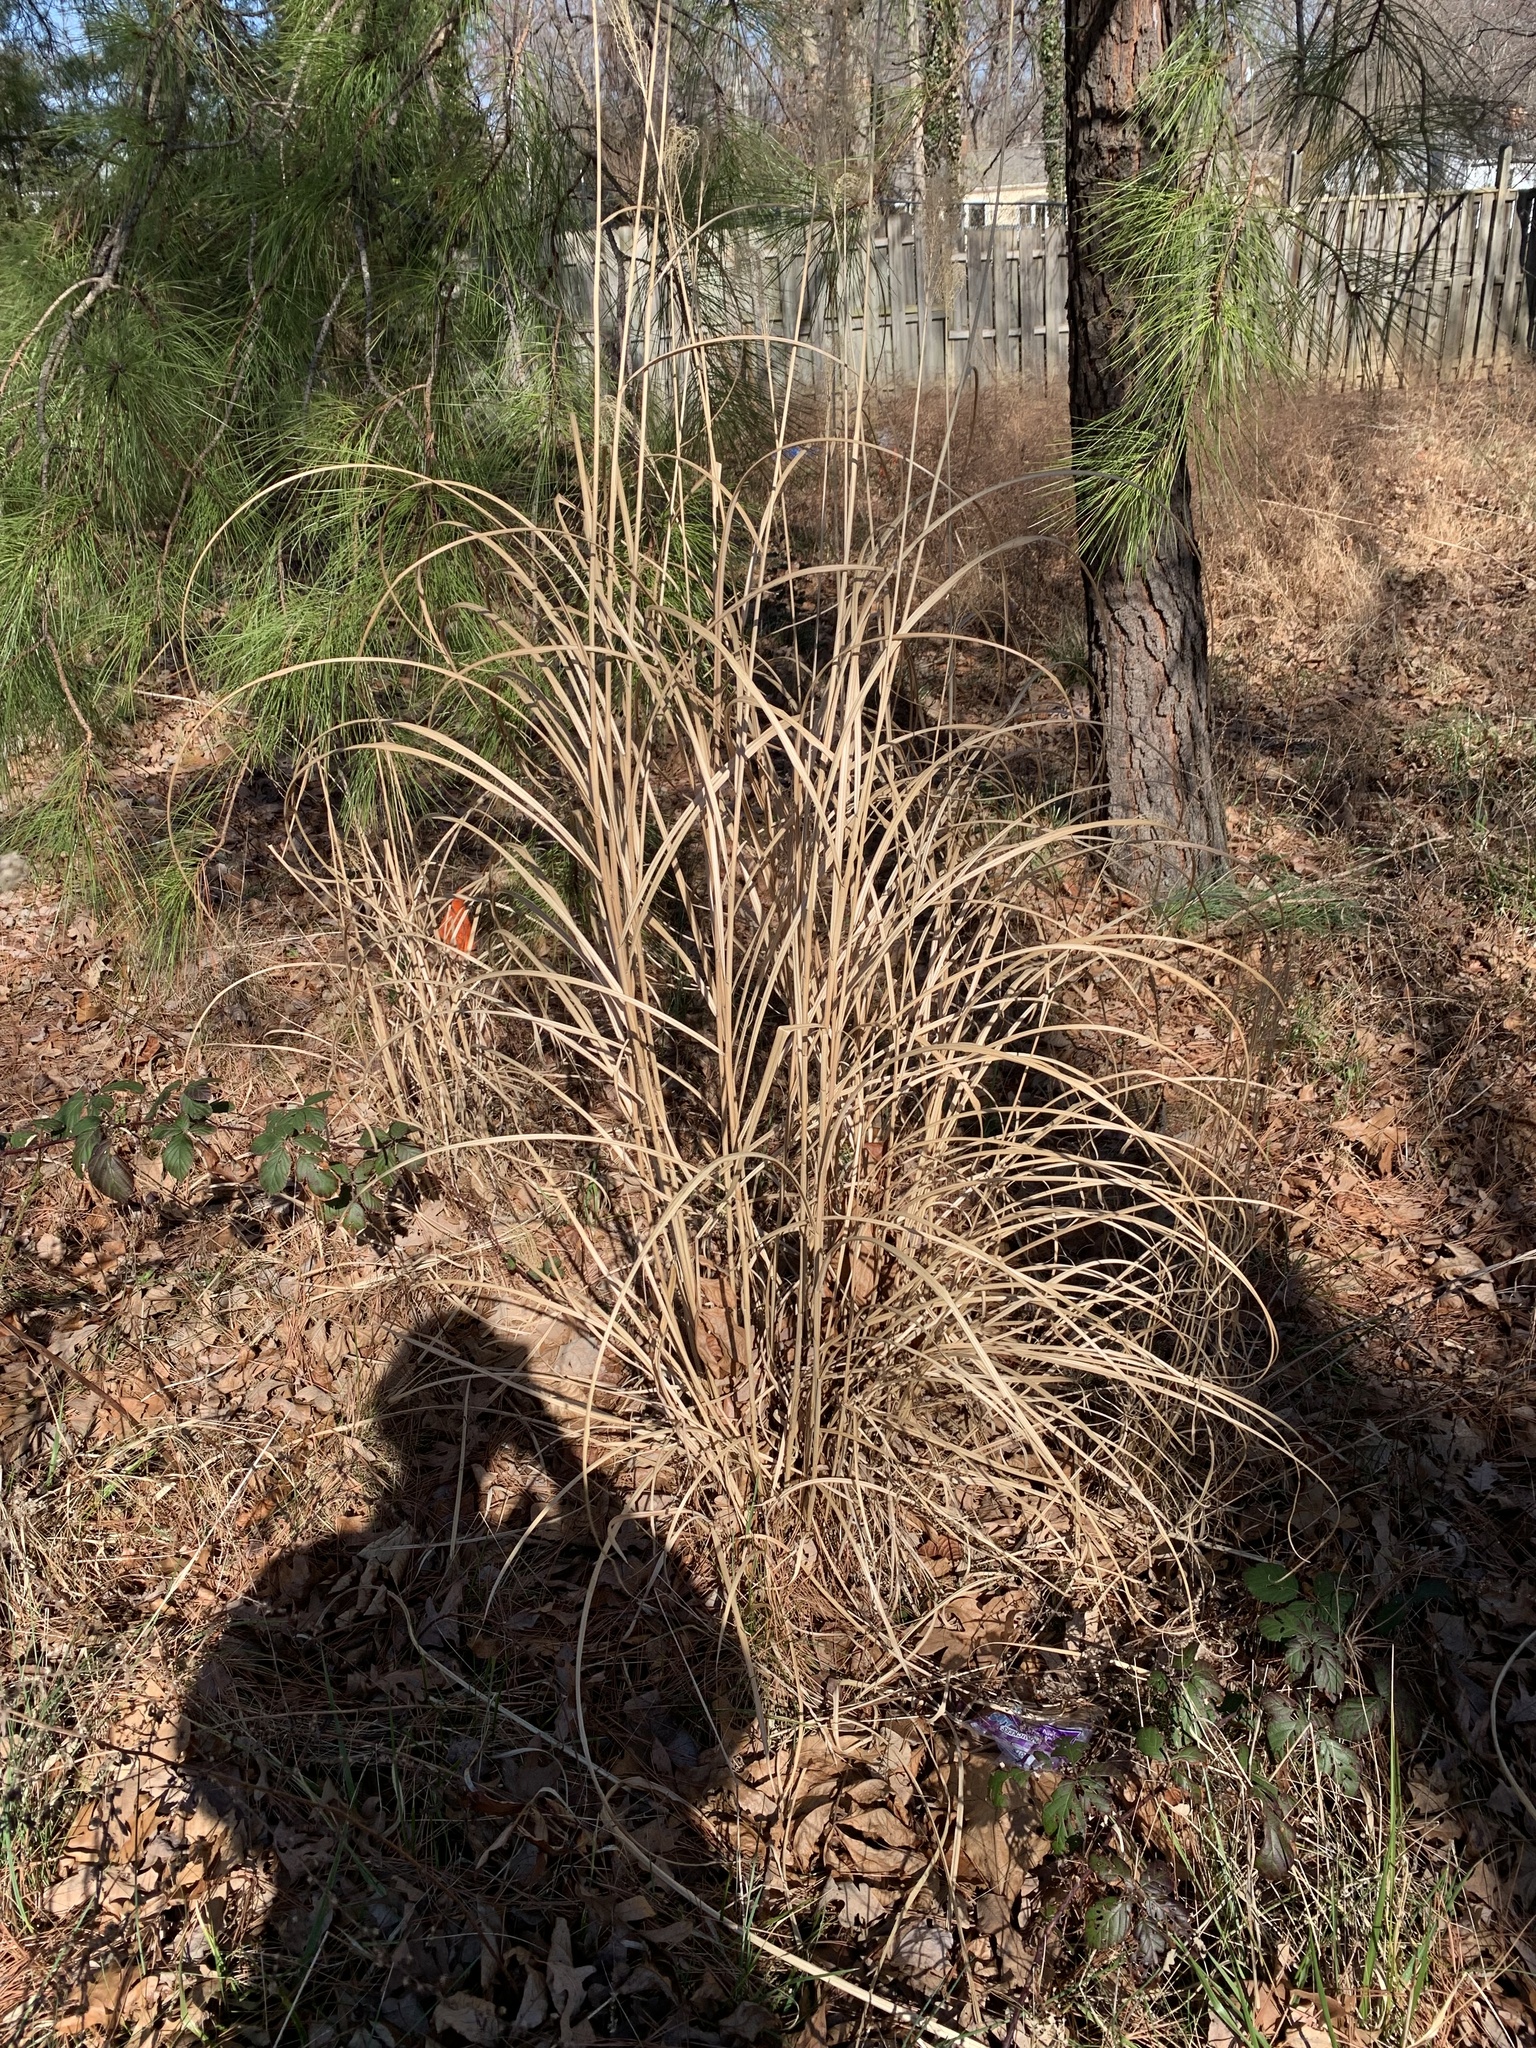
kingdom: Plantae
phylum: Tracheophyta
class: Liliopsida
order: Poales
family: Poaceae
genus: Miscanthus
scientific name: Miscanthus sinensis
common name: Chinese silvergrass
